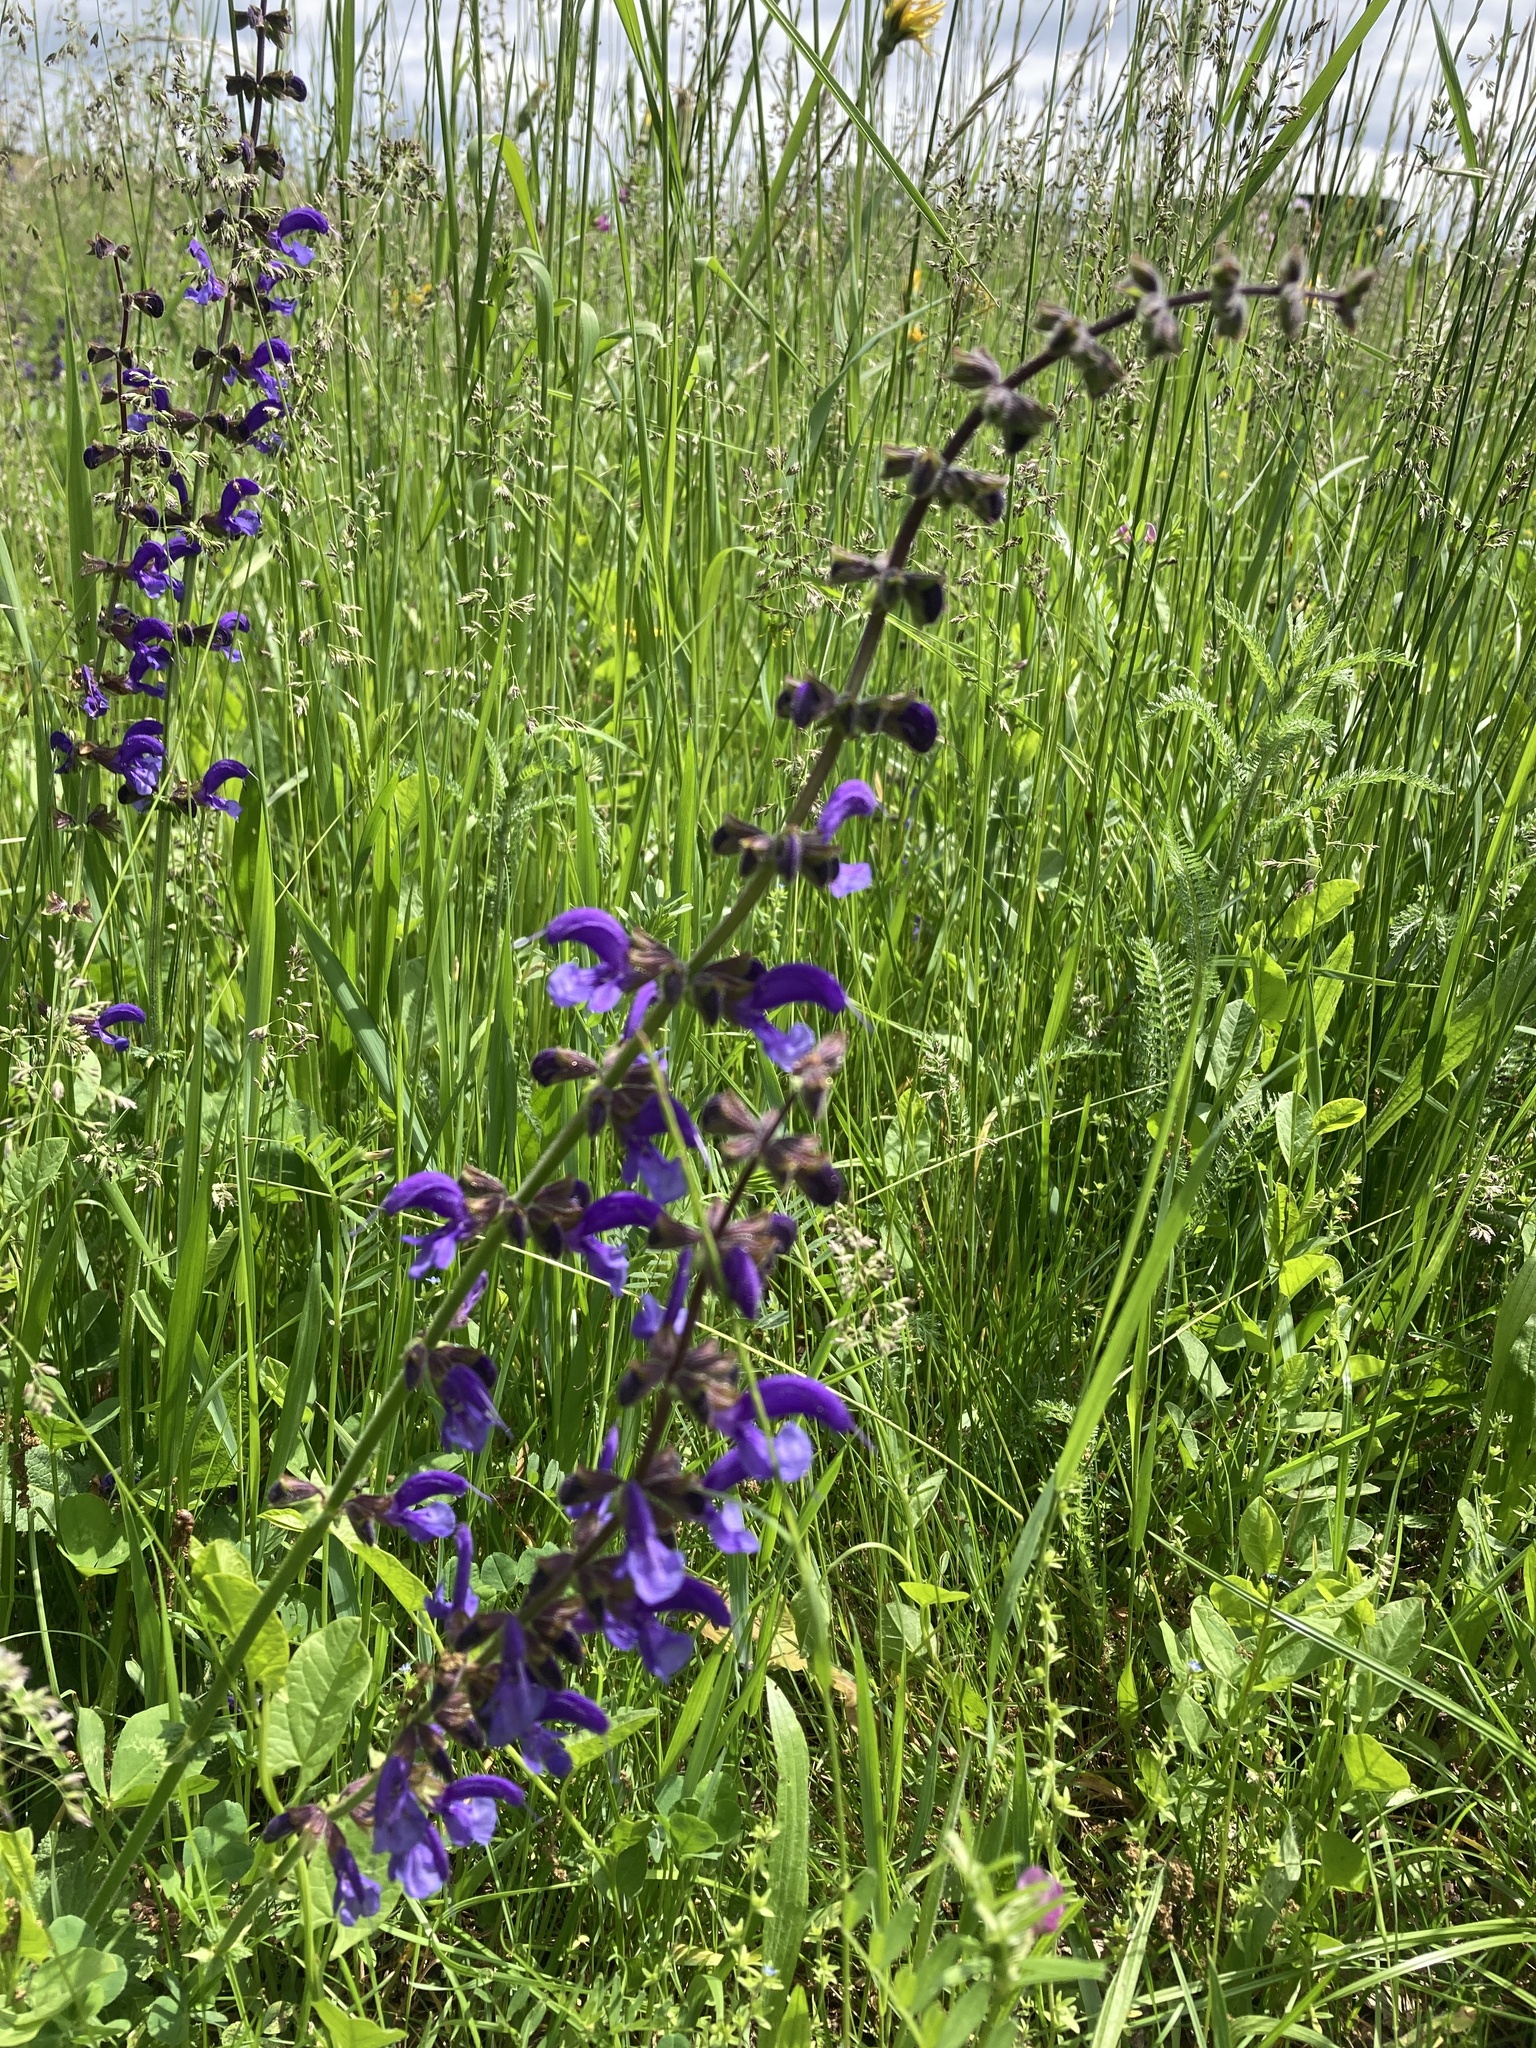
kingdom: Plantae
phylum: Tracheophyta
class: Magnoliopsida
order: Lamiales
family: Lamiaceae
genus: Salvia
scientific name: Salvia pratensis
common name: Meadow sage
